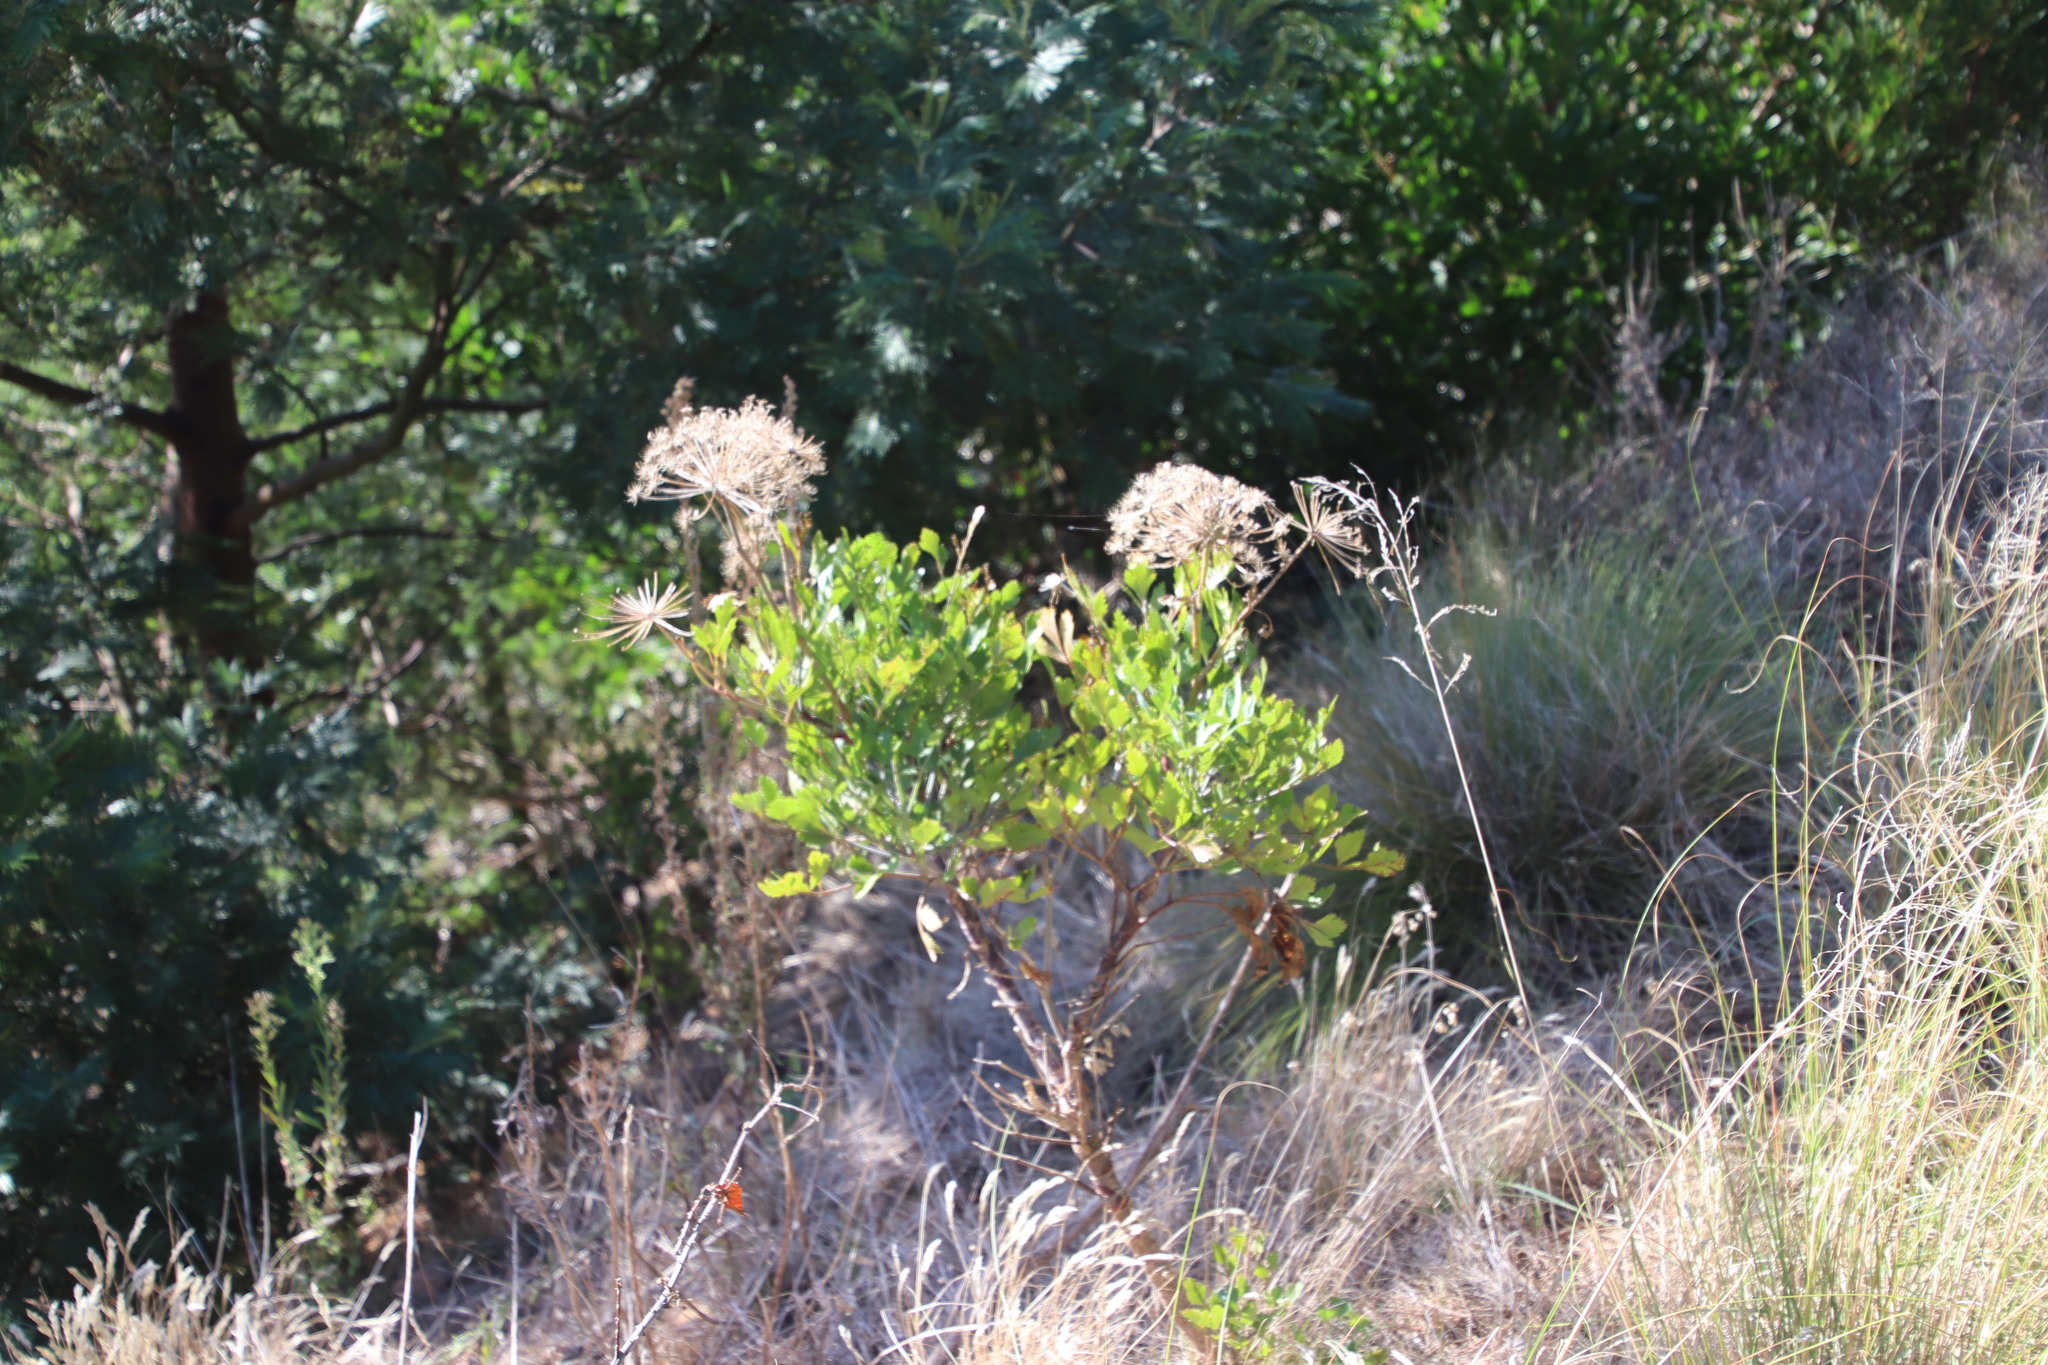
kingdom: Plantae
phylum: Tracheophyta
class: Magnoliopsida
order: Apiales
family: Apiaceae
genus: Notobubon
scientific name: Notobubon galbanum
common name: Blisterbush
